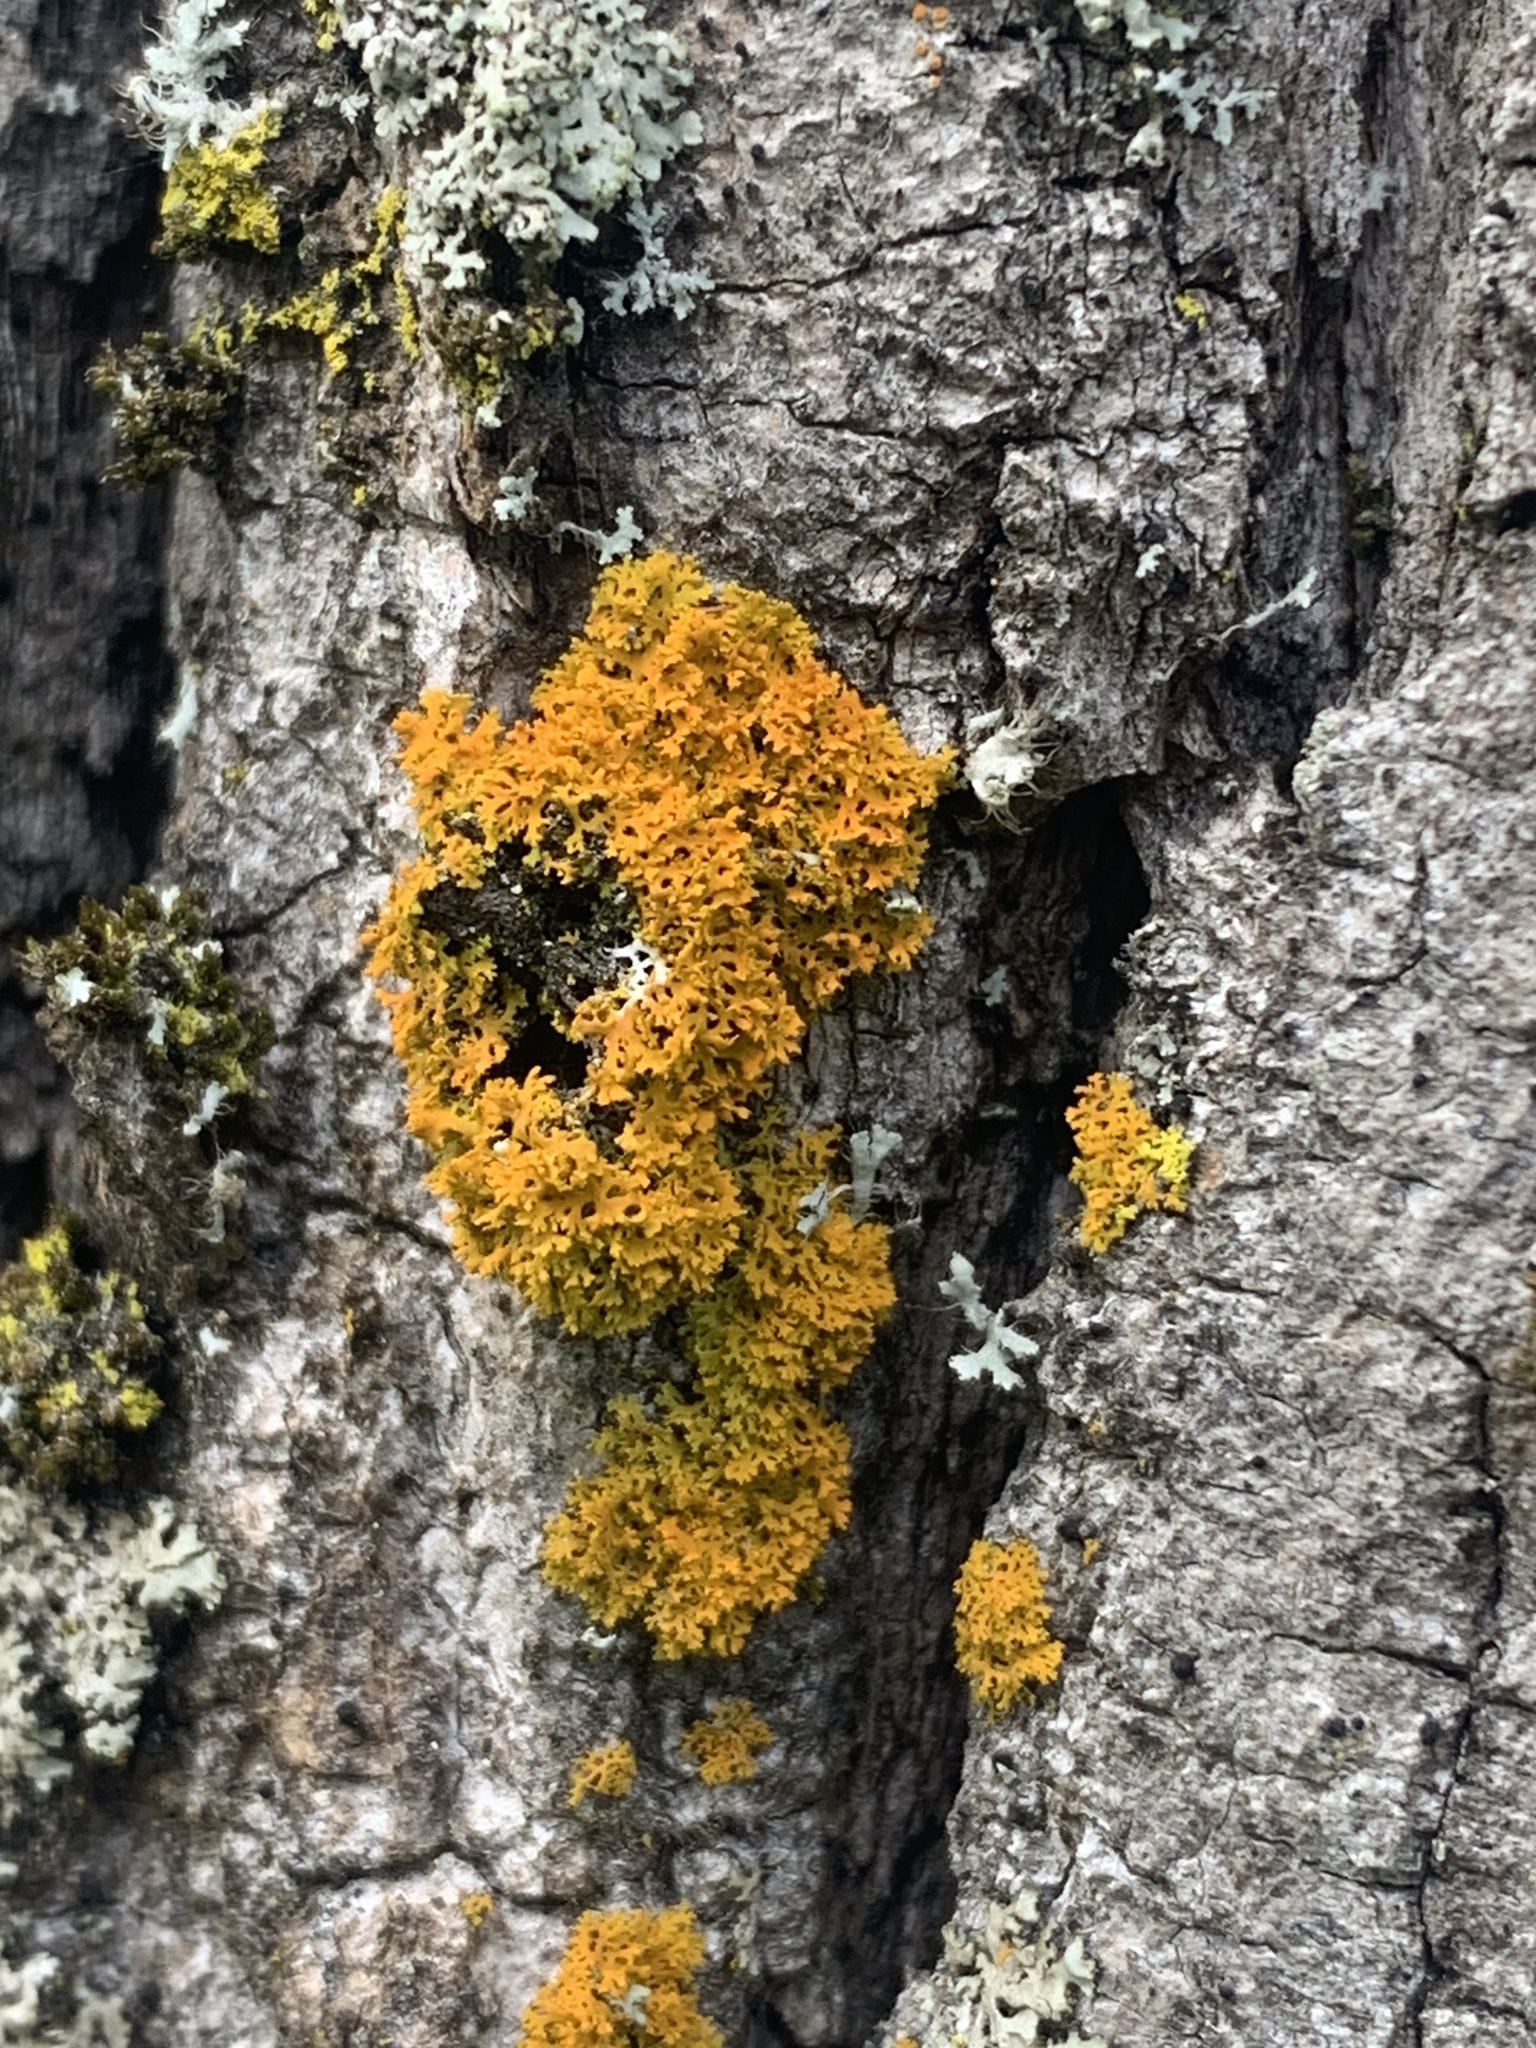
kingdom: Fungi
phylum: Ascomycota
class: Lecanoromycetes
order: Teloschistales
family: Teloschistaceae
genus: Gallowayella
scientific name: Gallowayella weberi
